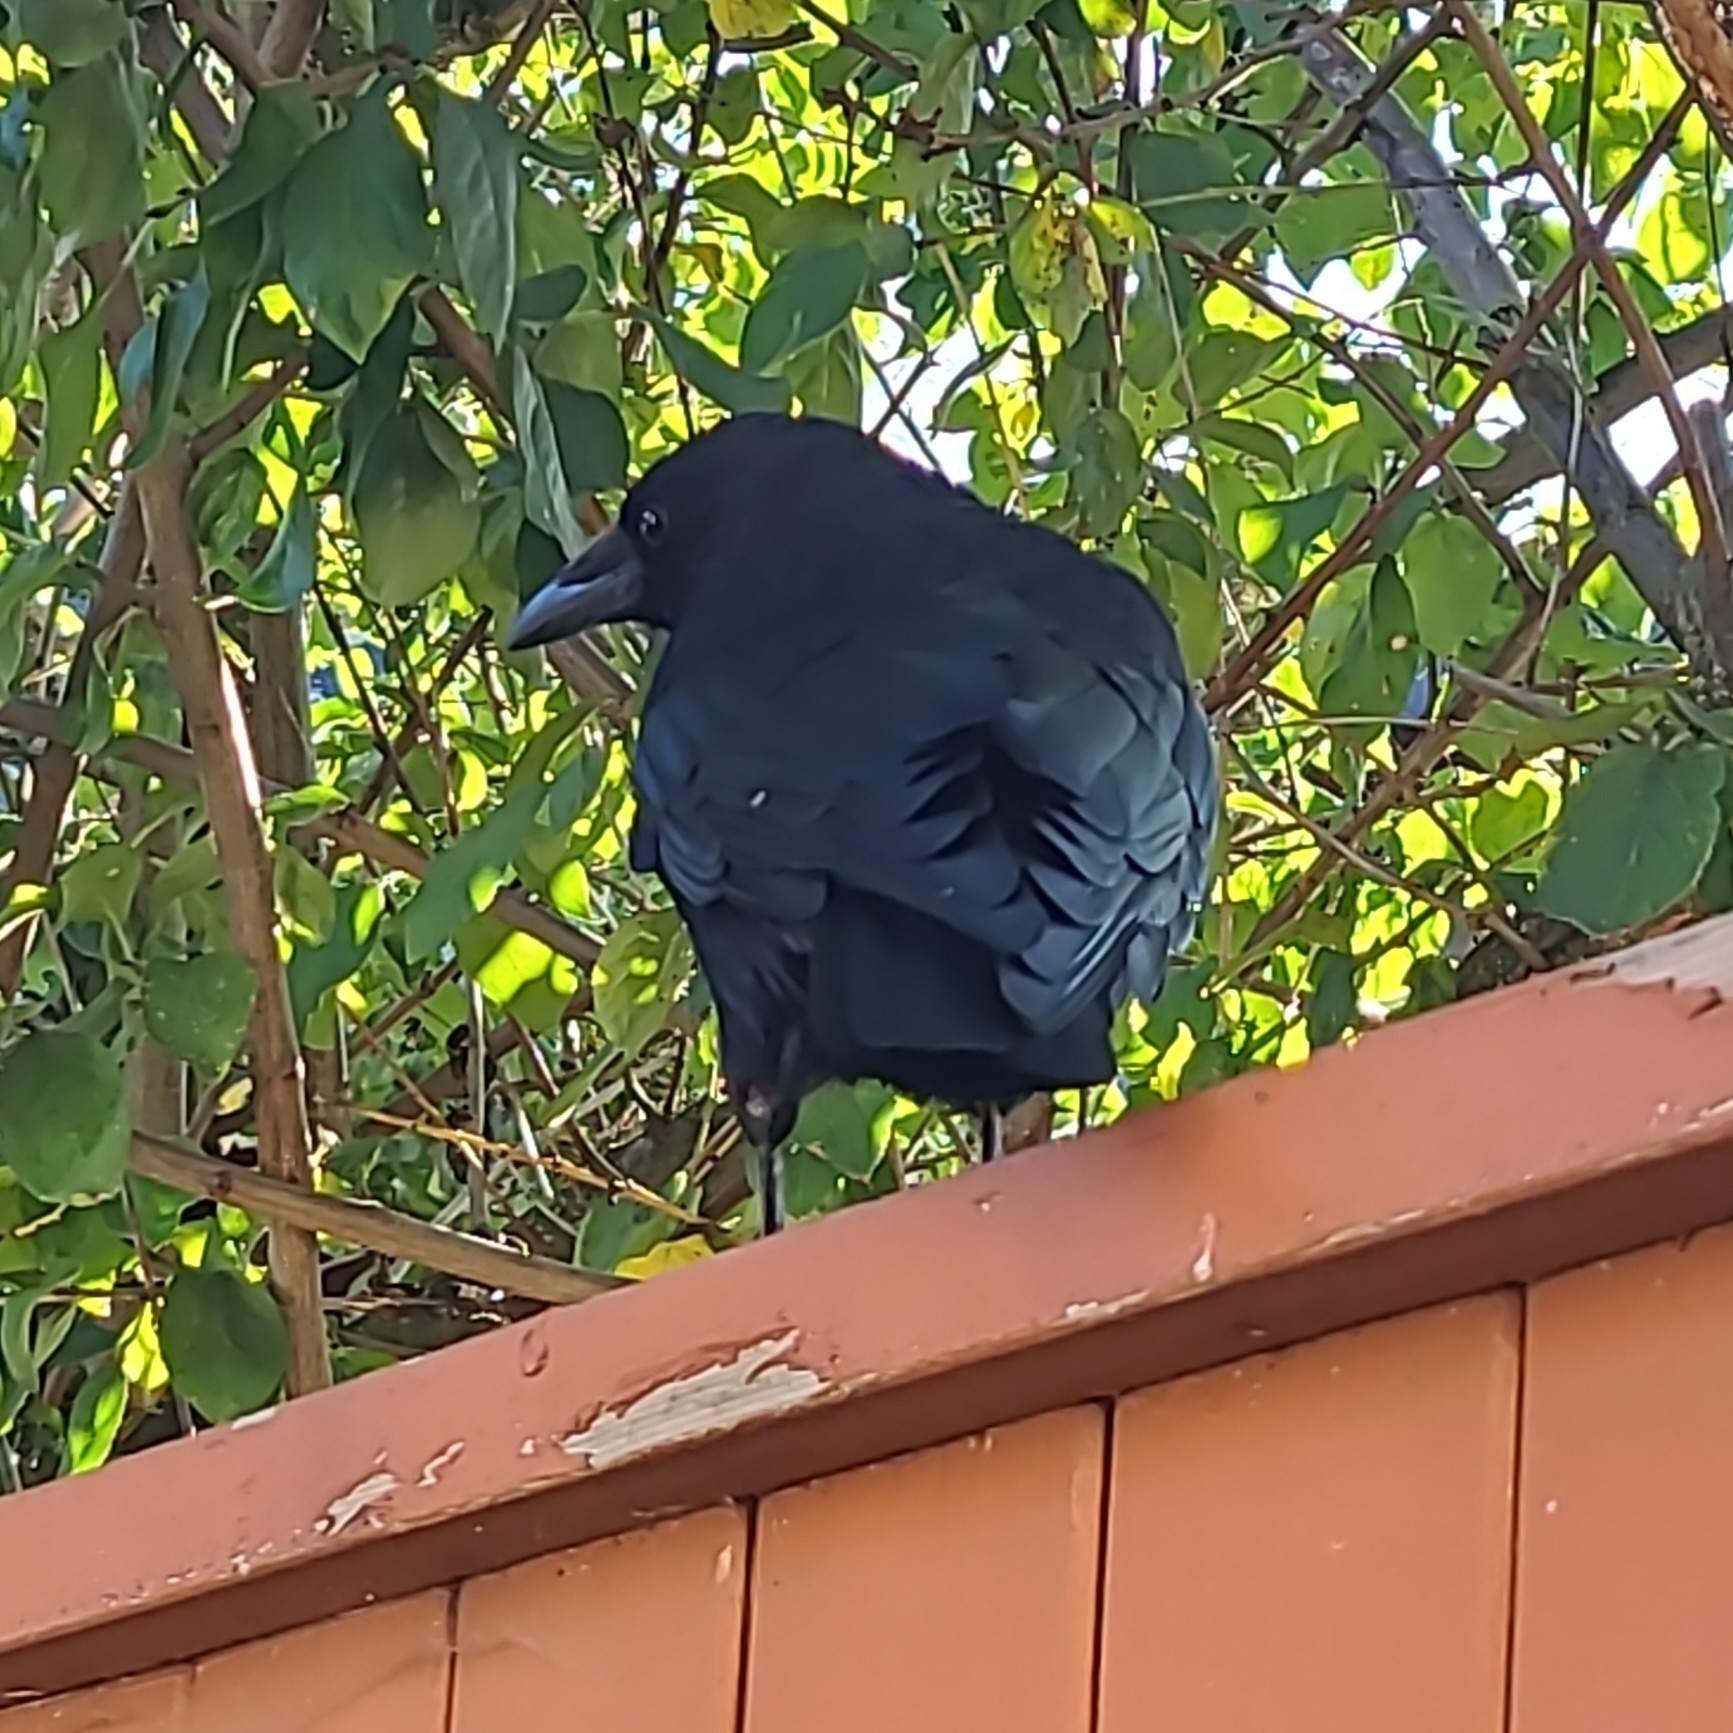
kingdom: Animalia
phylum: Chordata
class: Aves
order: Passeriformes
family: Corvidae
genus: Corvus
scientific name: Corvus brachyrhynchos
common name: American crow
